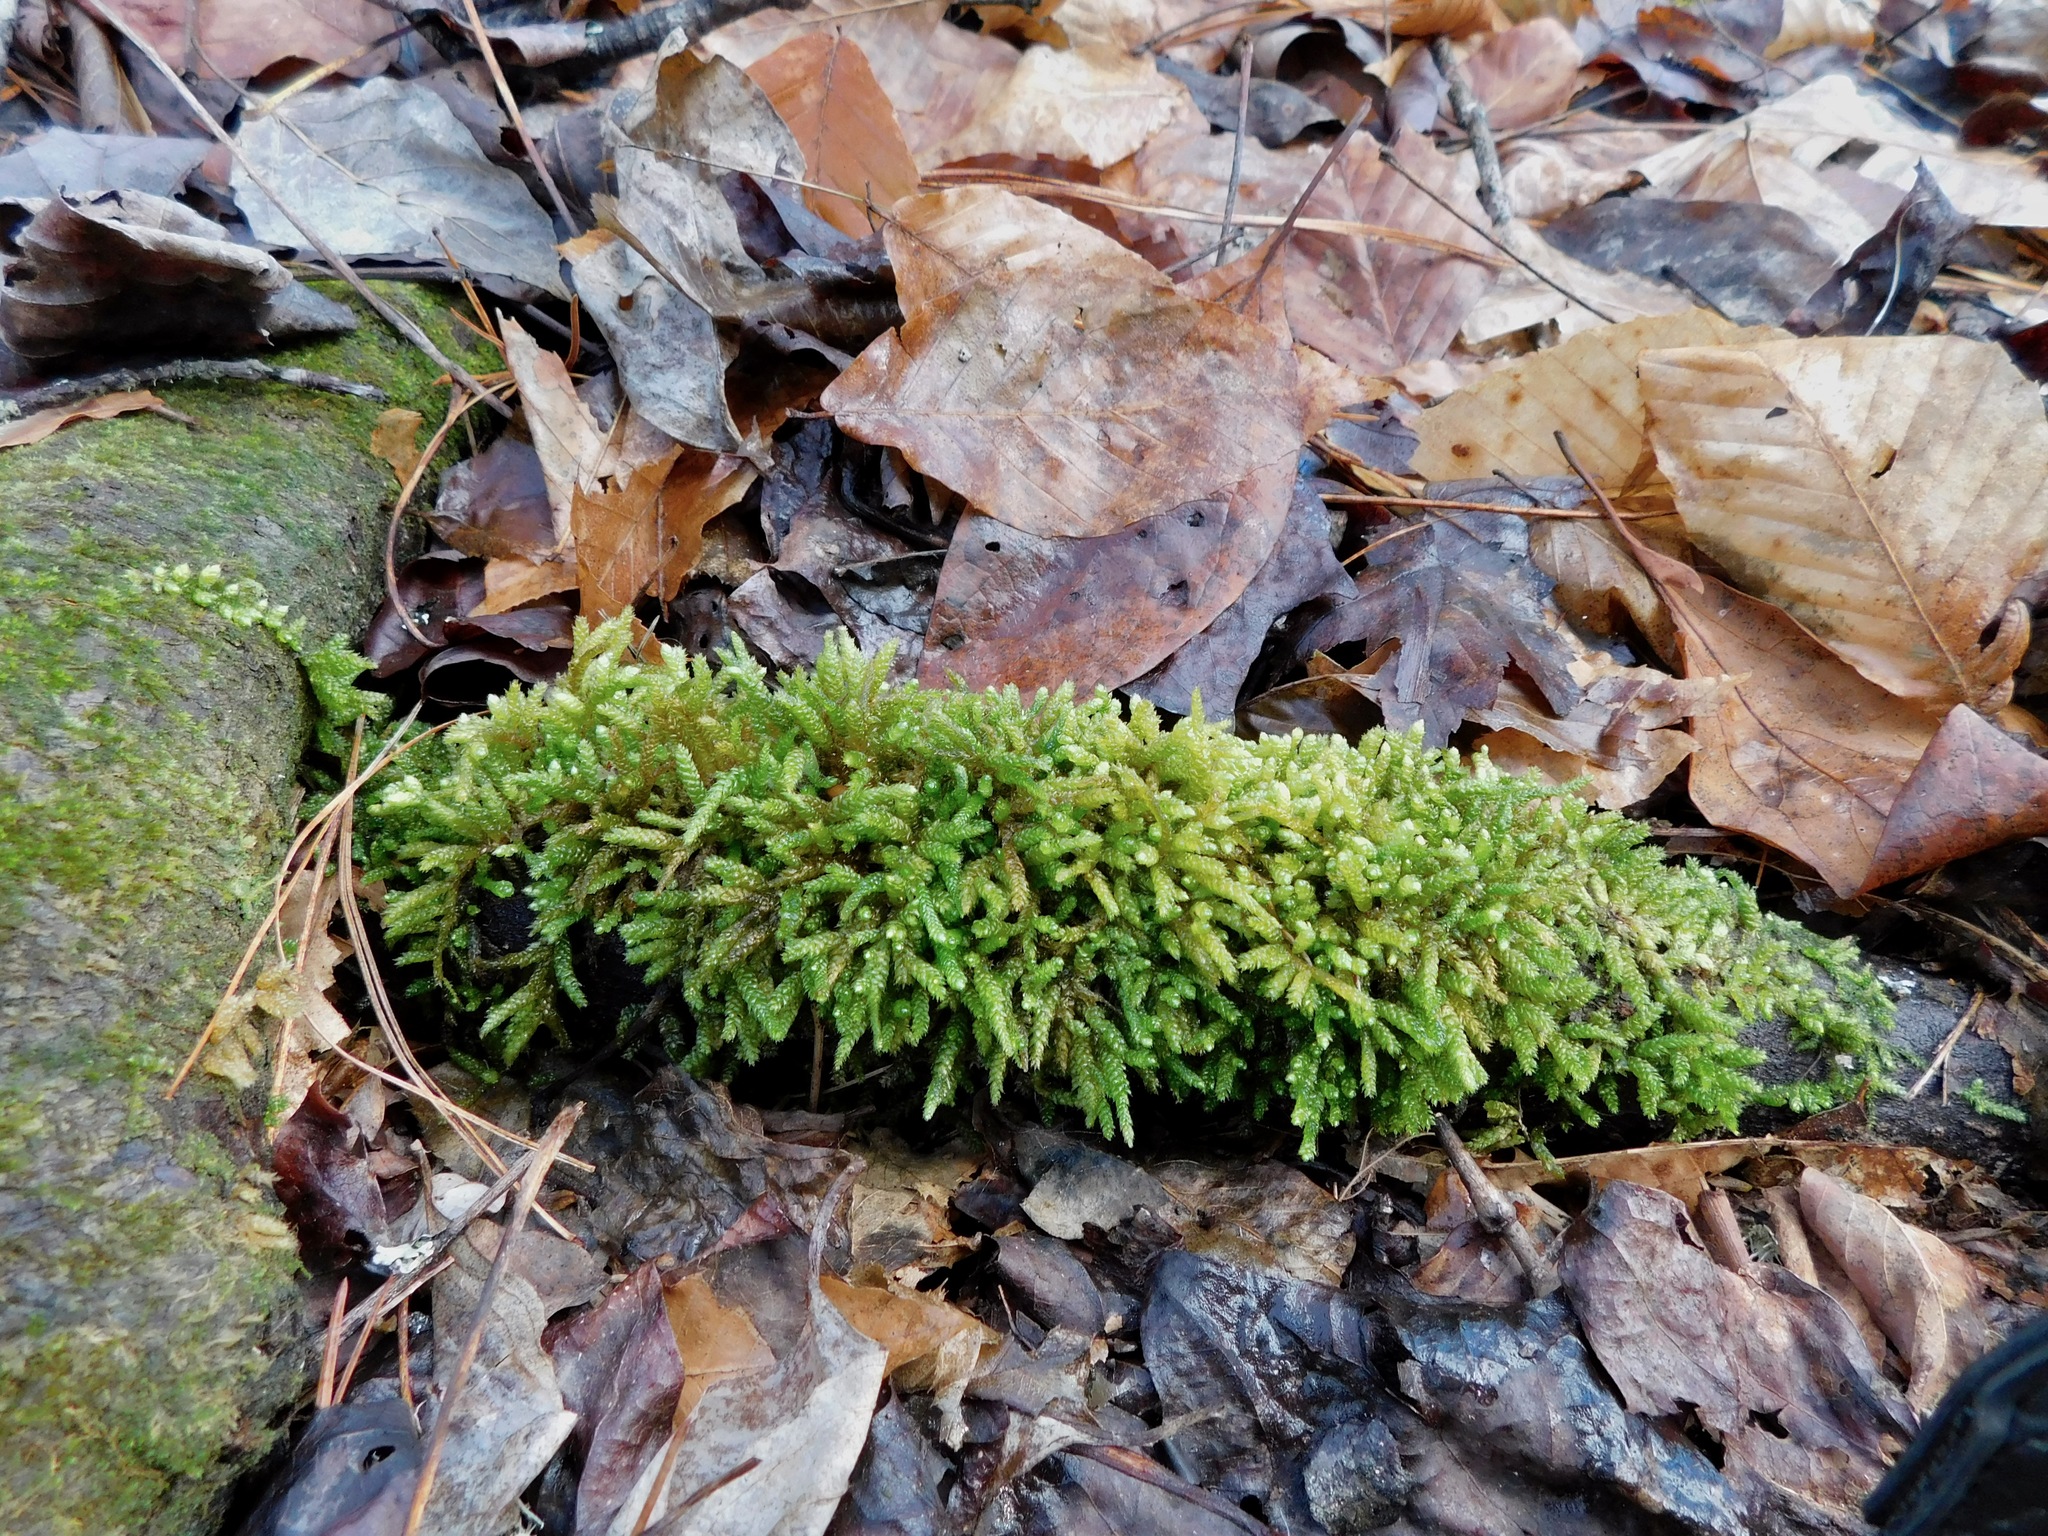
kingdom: Plantae
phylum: Bryophyta
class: Bryopsida
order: Hypnales
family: Brachytheciaceae
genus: Bryoandersonia
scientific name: Bryoandersonia illecebra
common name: Spoon-leaved moss
